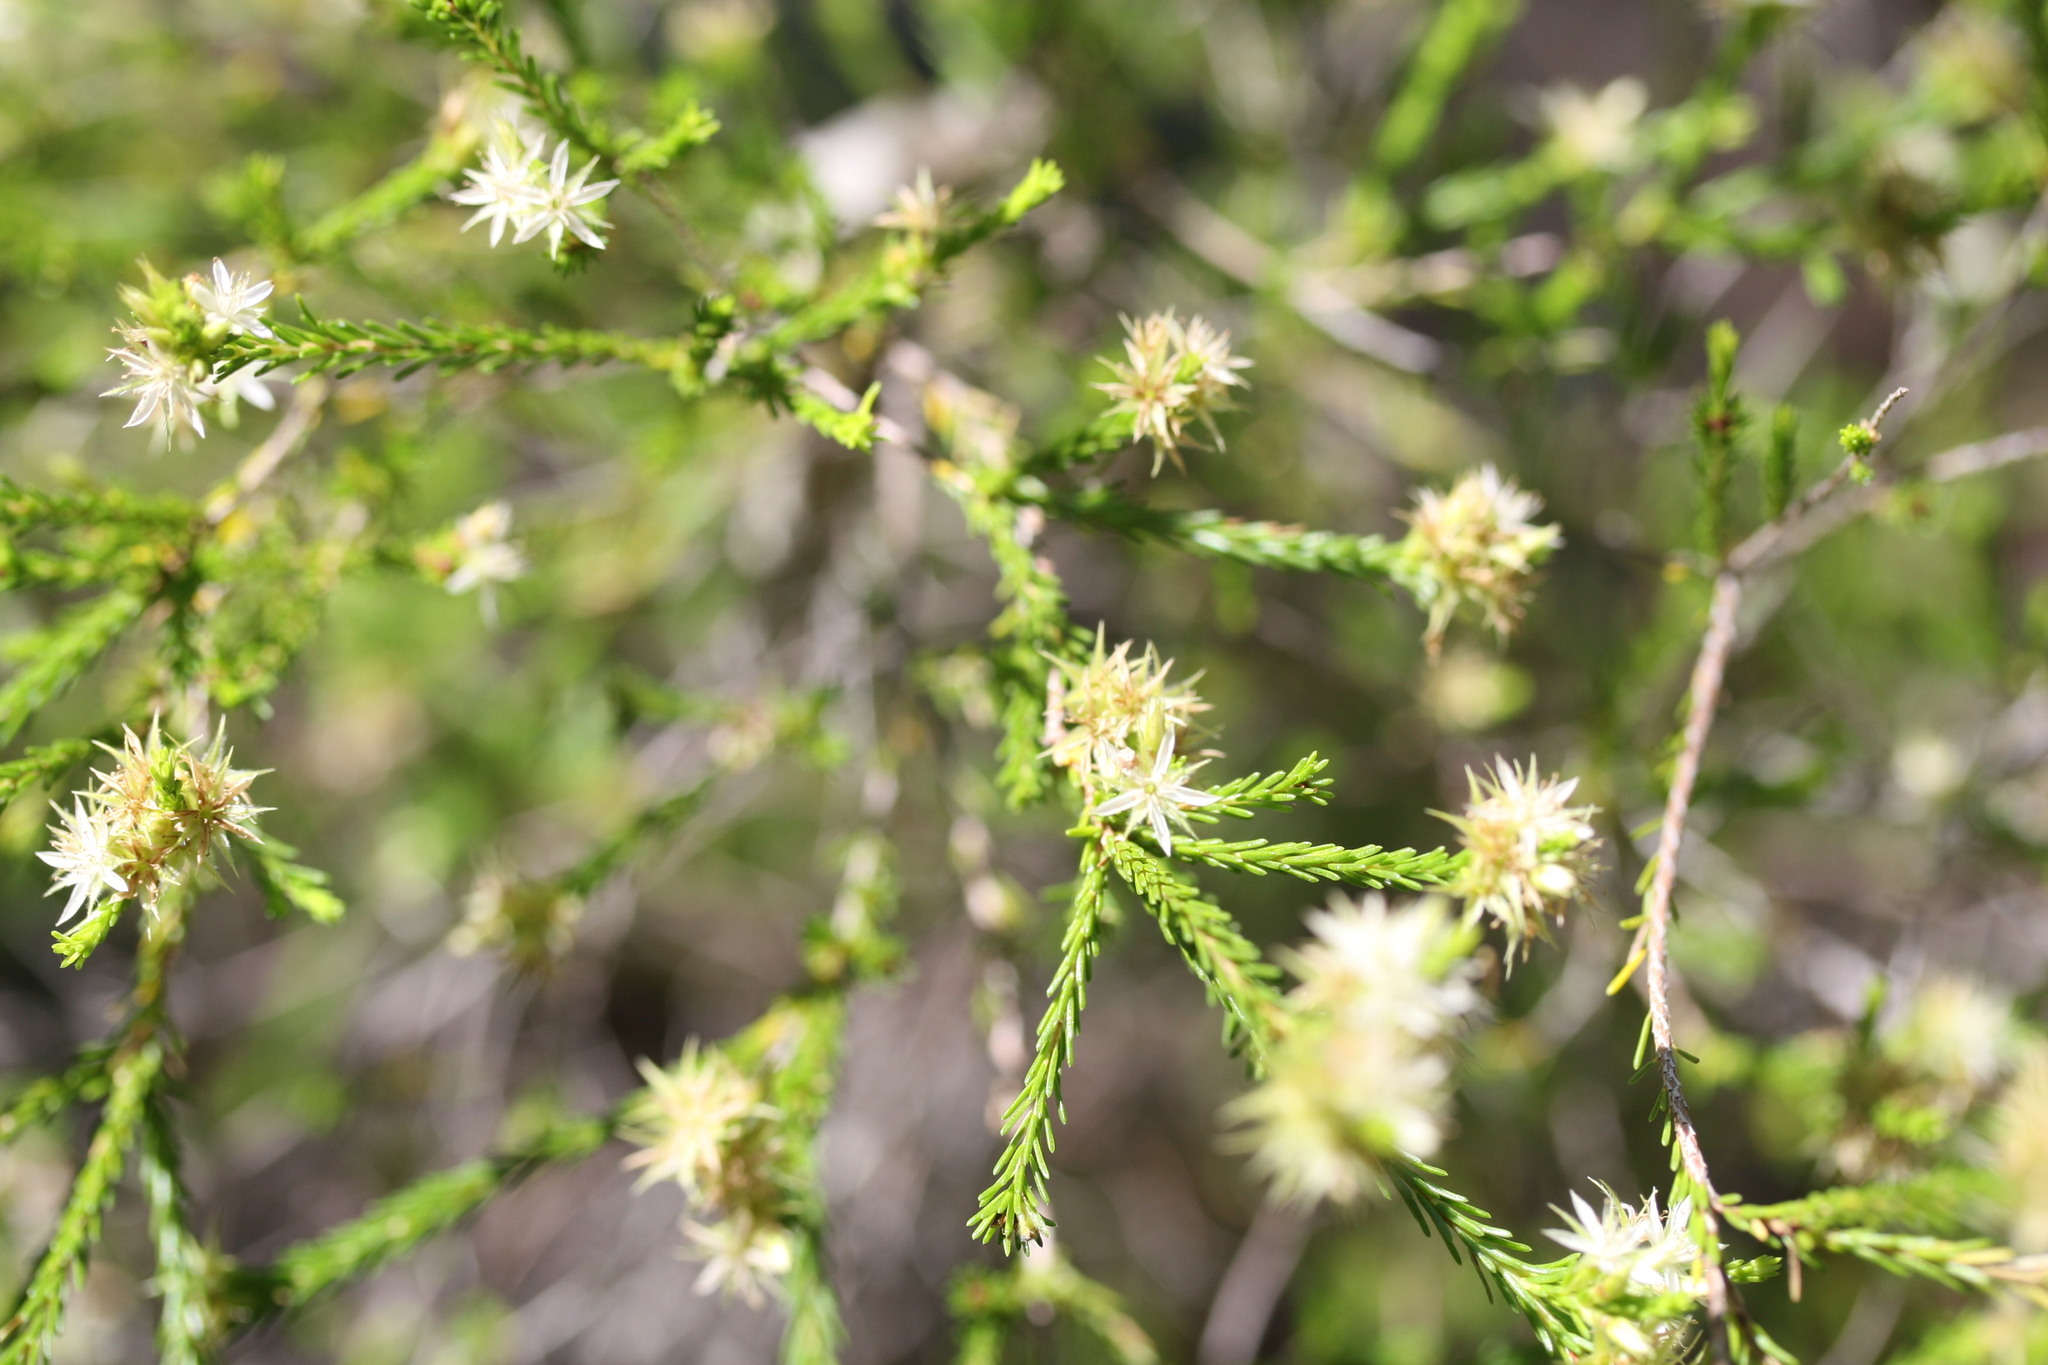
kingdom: Plantae
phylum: Tracheophyta
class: Magnoliopsida
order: Myrtales
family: Myrtaceae
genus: Calytrix
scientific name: Calytrix brownii
